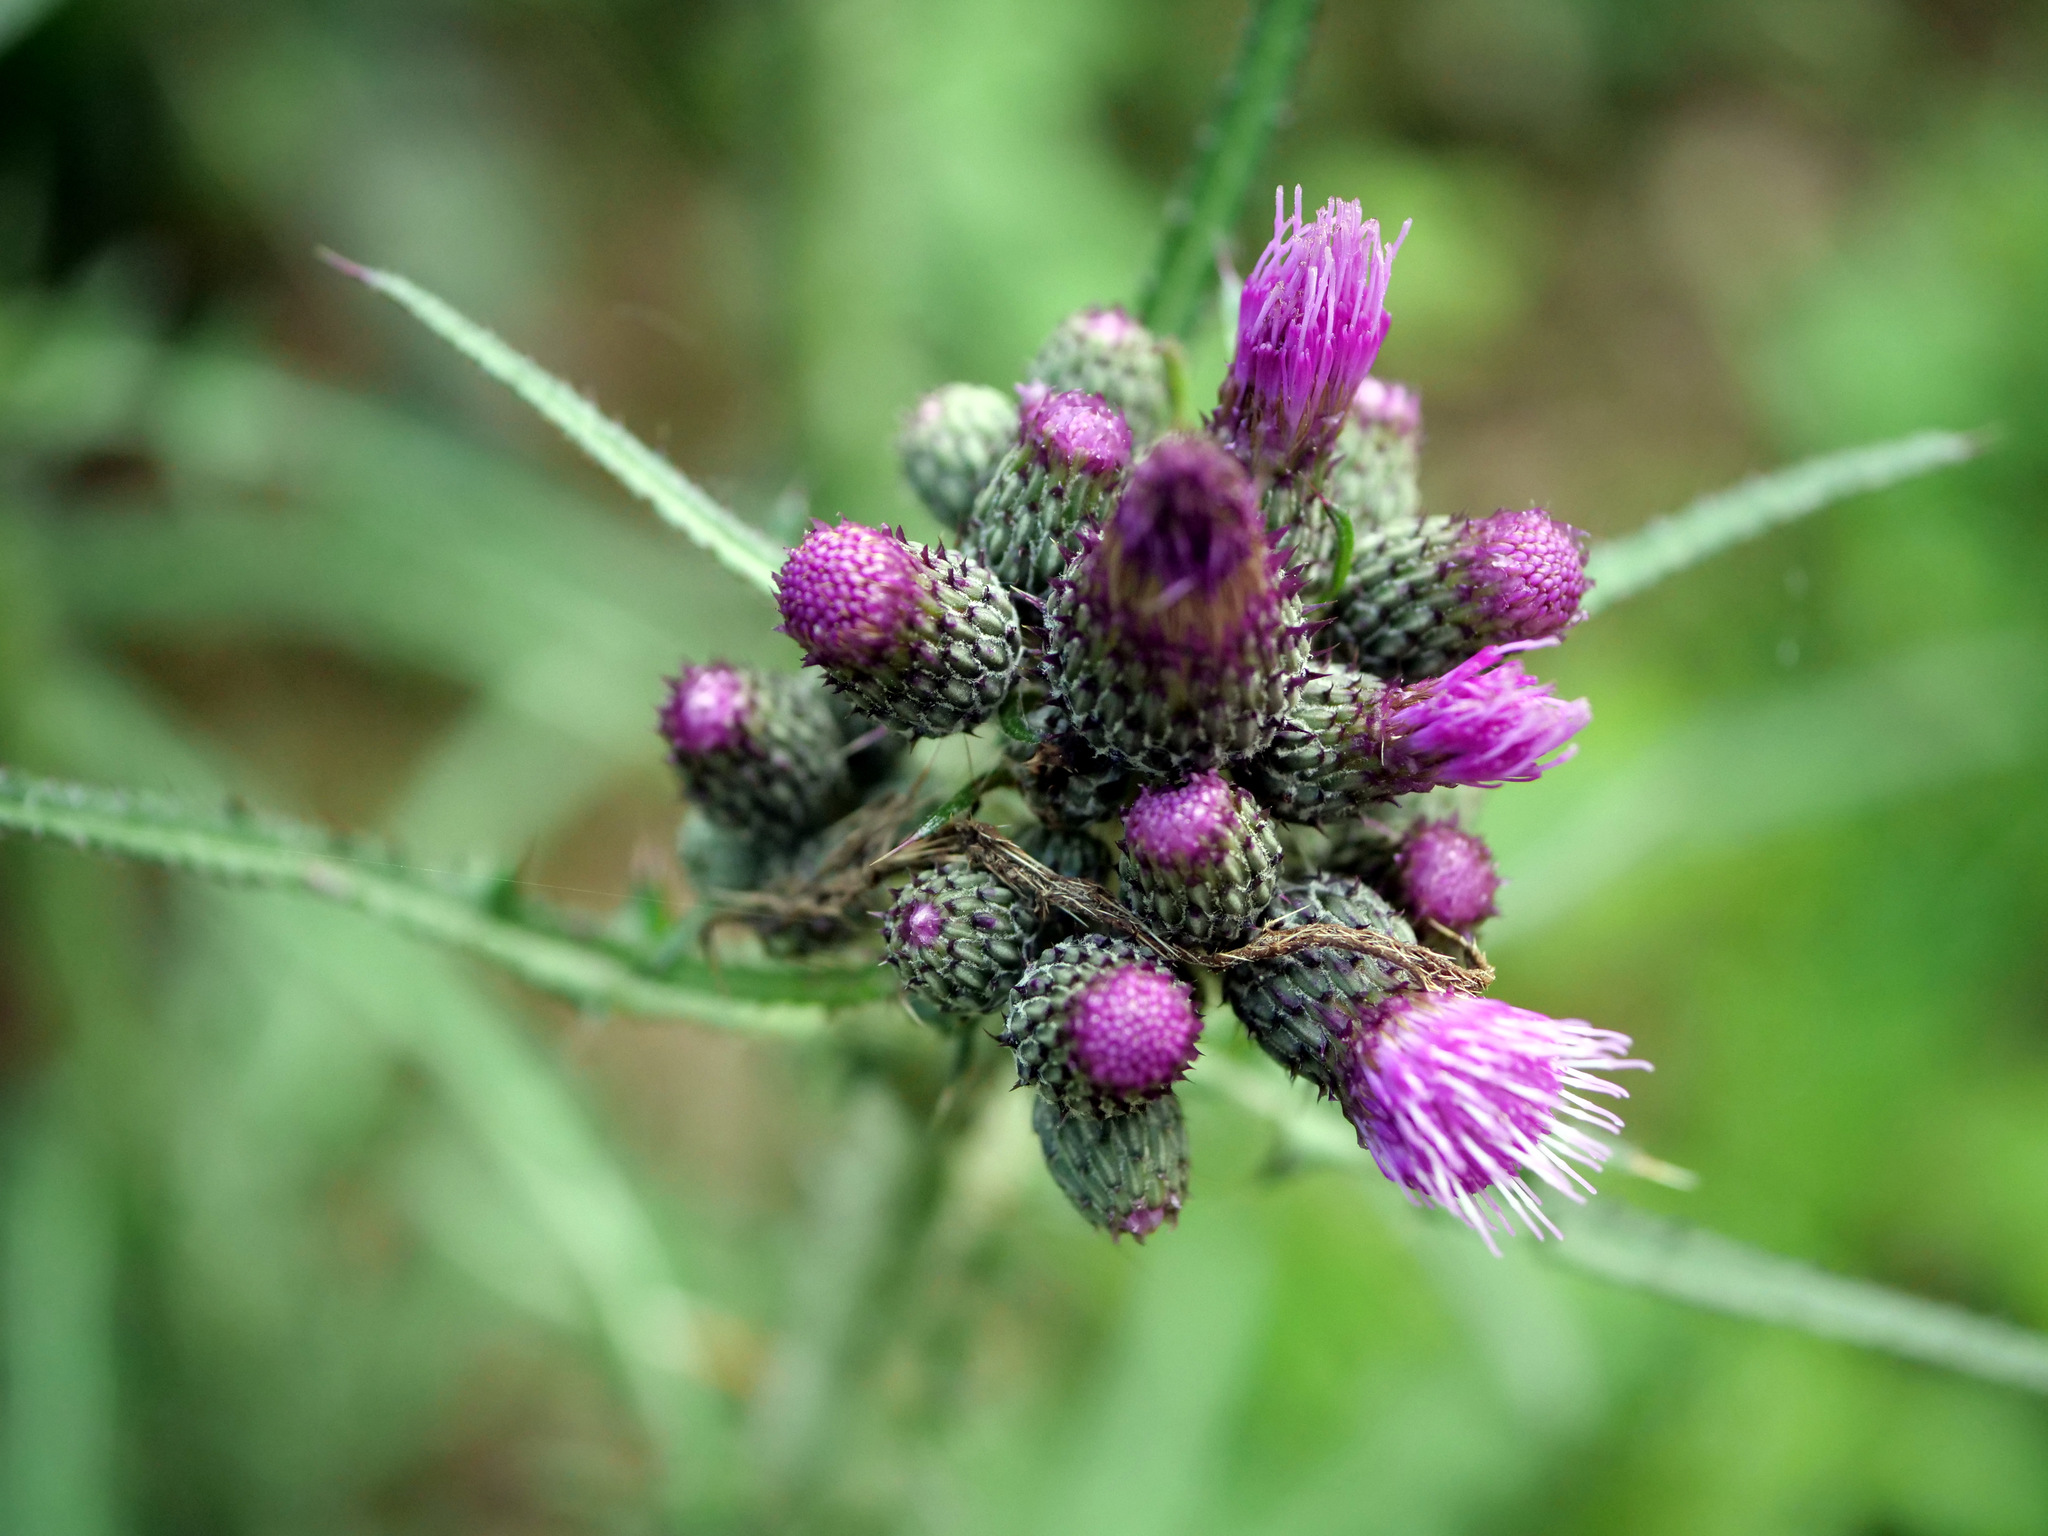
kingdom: Plantae
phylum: Tracheophyta
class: Magnoliopsida
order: Asterales
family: Asteraceae
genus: Cirsium
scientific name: Cirsium palustre
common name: Marsh thistle
